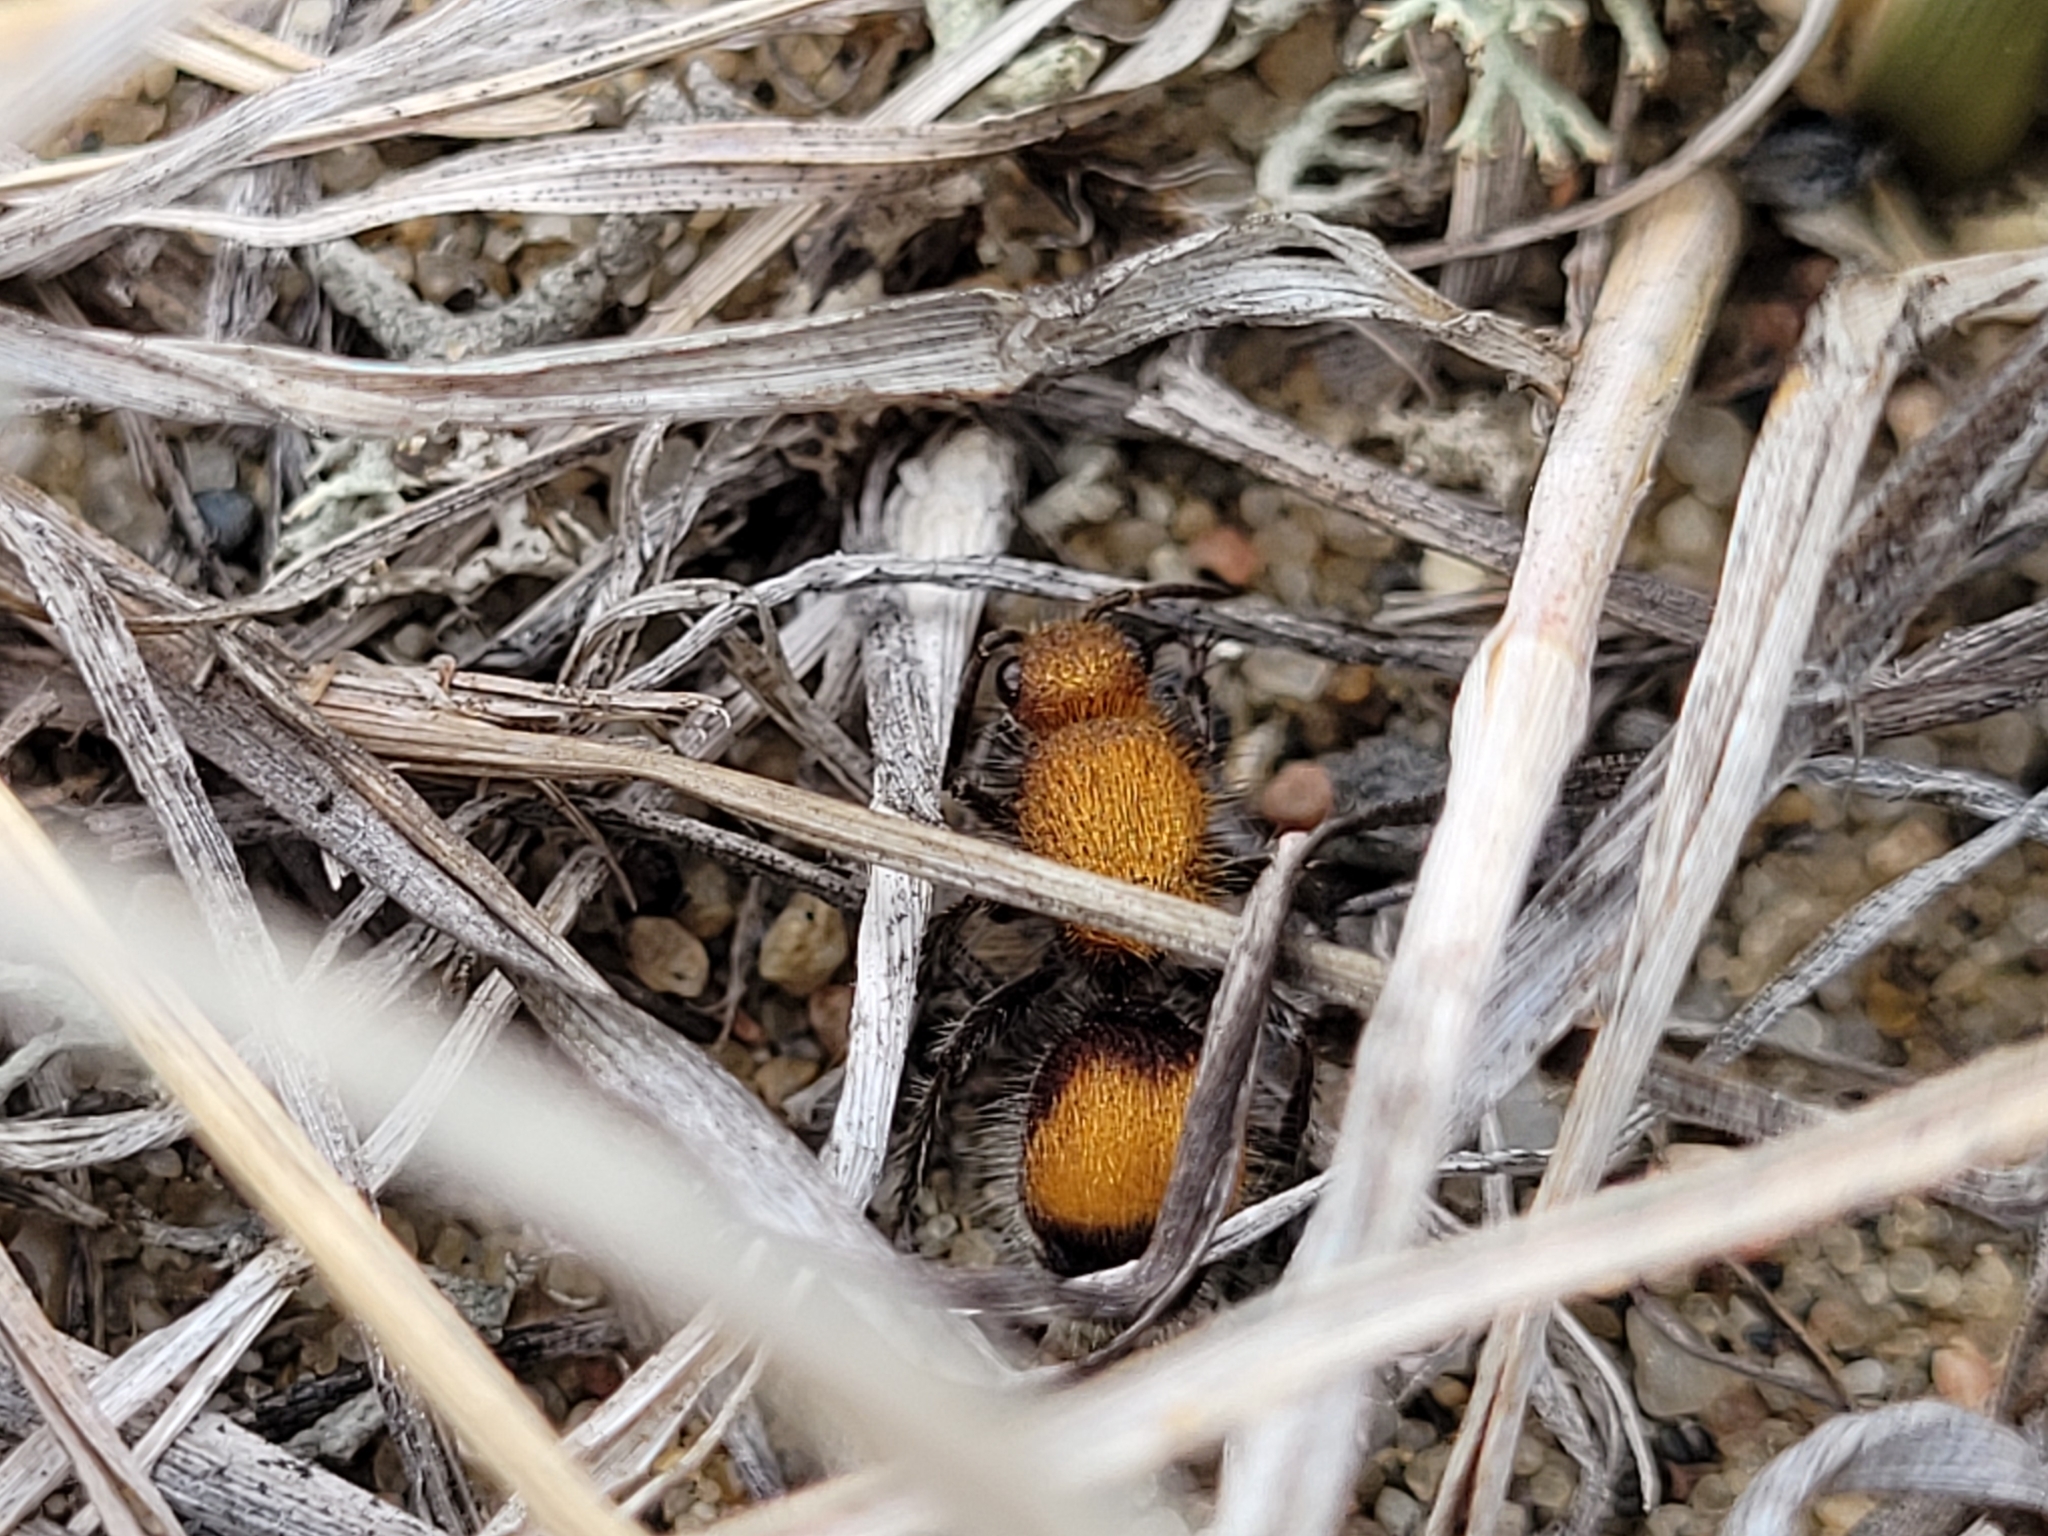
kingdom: Animalia
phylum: Arthropoda
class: Insecta
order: Hymenoptera
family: Mutillidae
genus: Dasymutilla
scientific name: Dasymutilla
